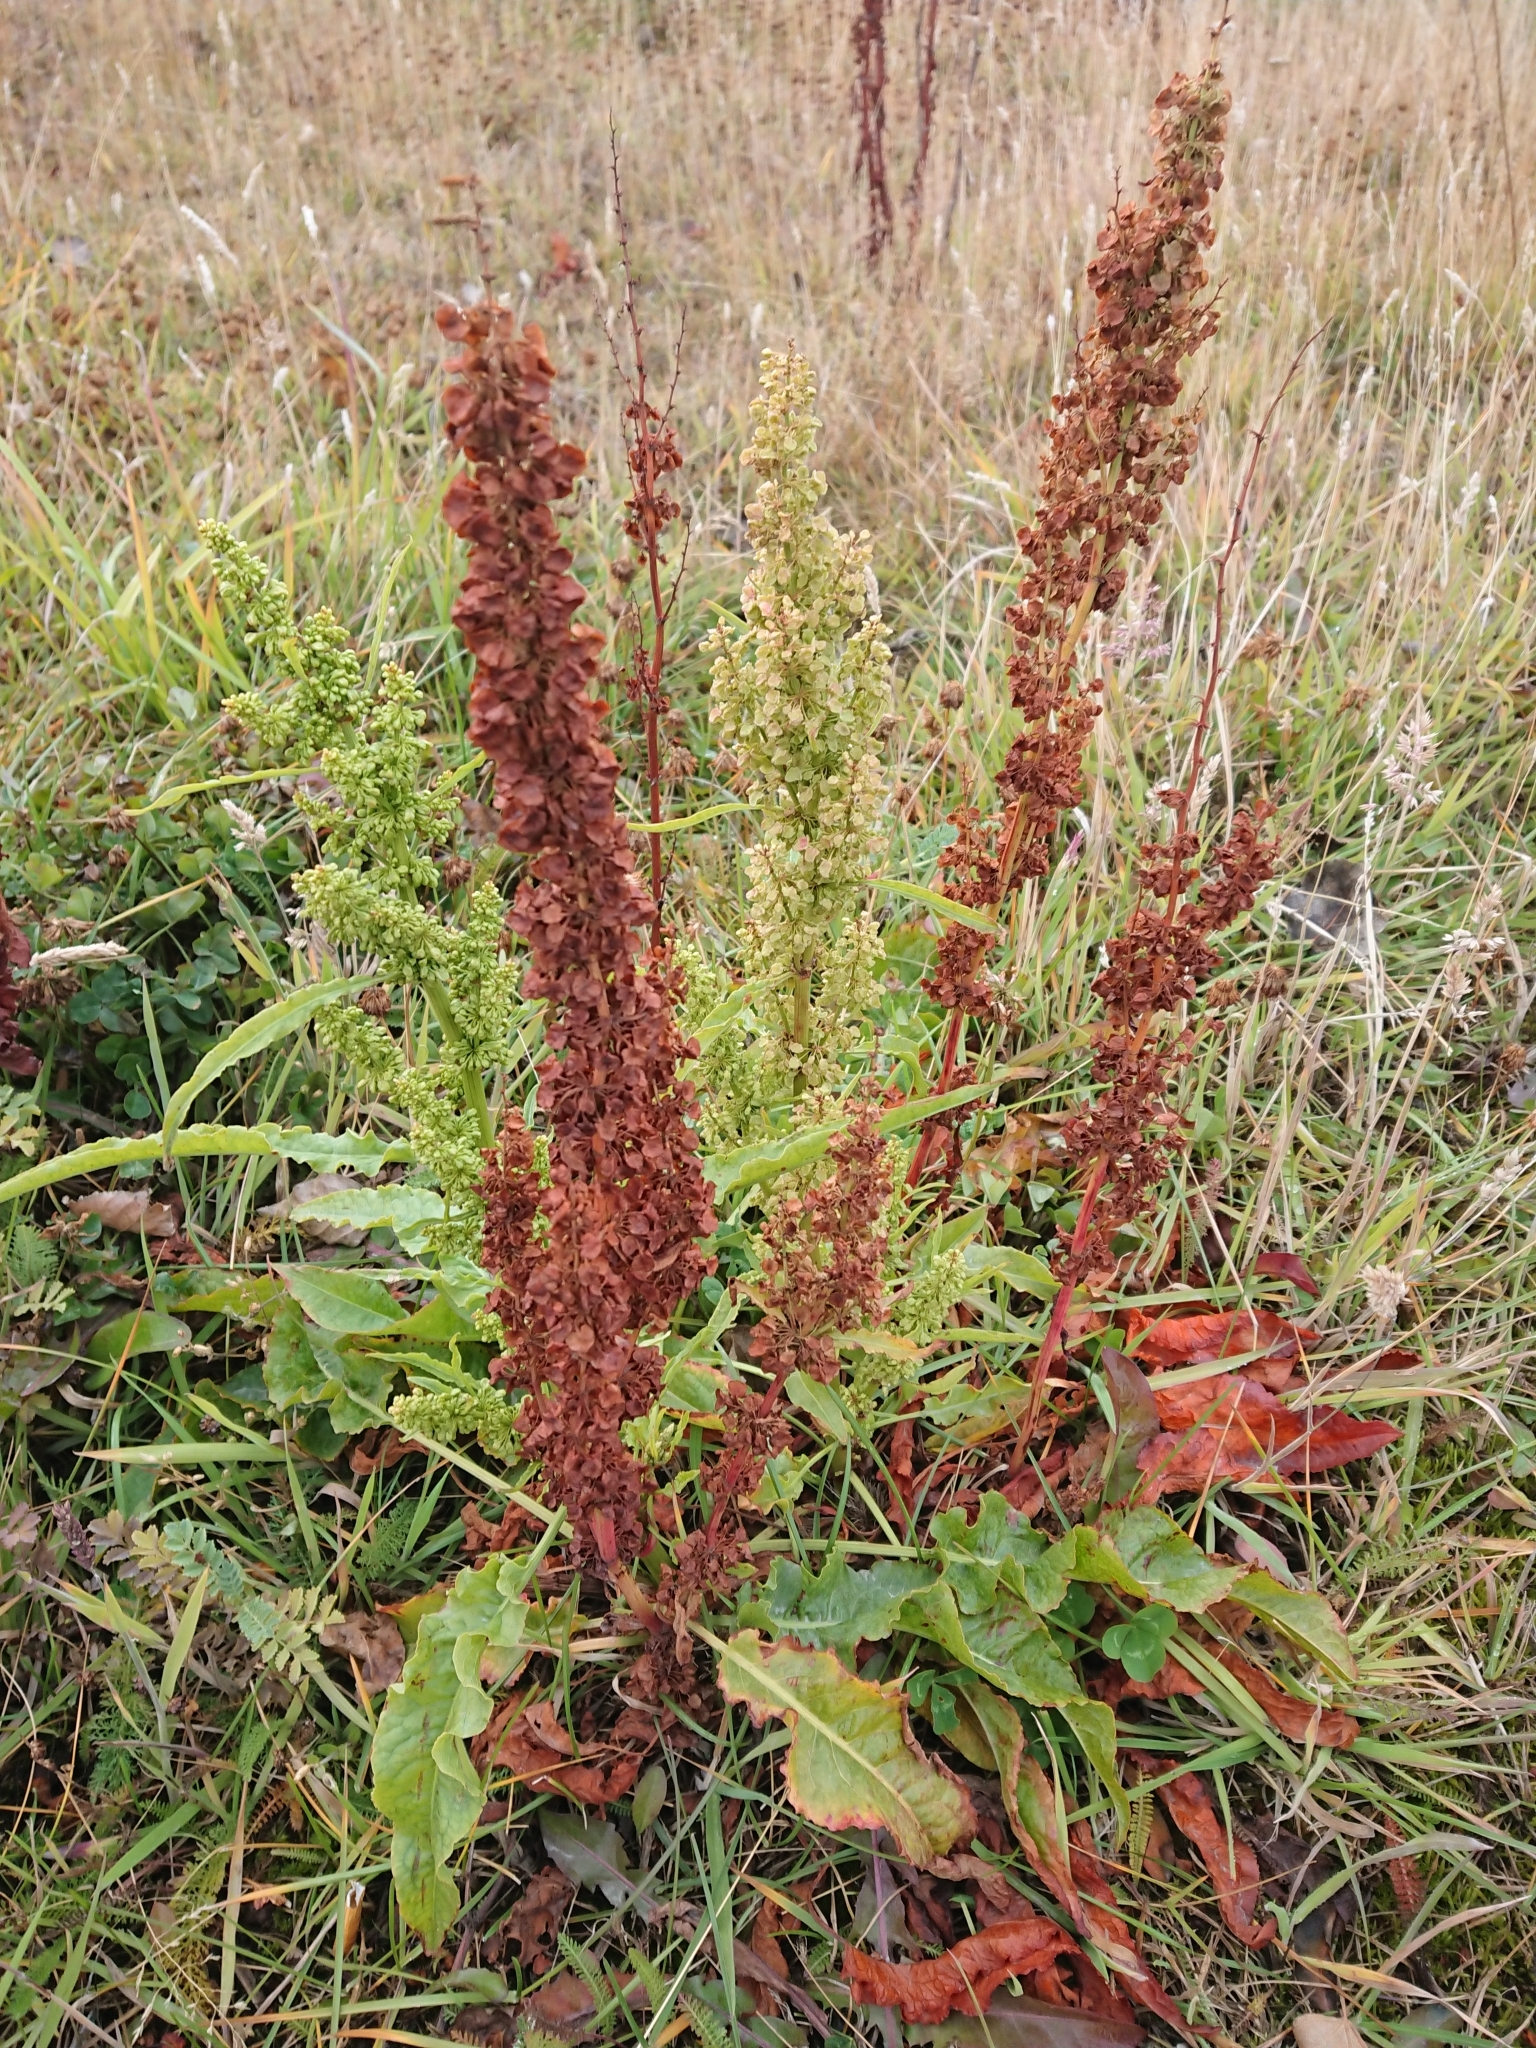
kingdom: Plantae
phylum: Tracheophyta
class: Magnoliopsida
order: Caryophyllales
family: Polygonaceae
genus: Rumex
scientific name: Rumex crispus
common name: Curled dock
